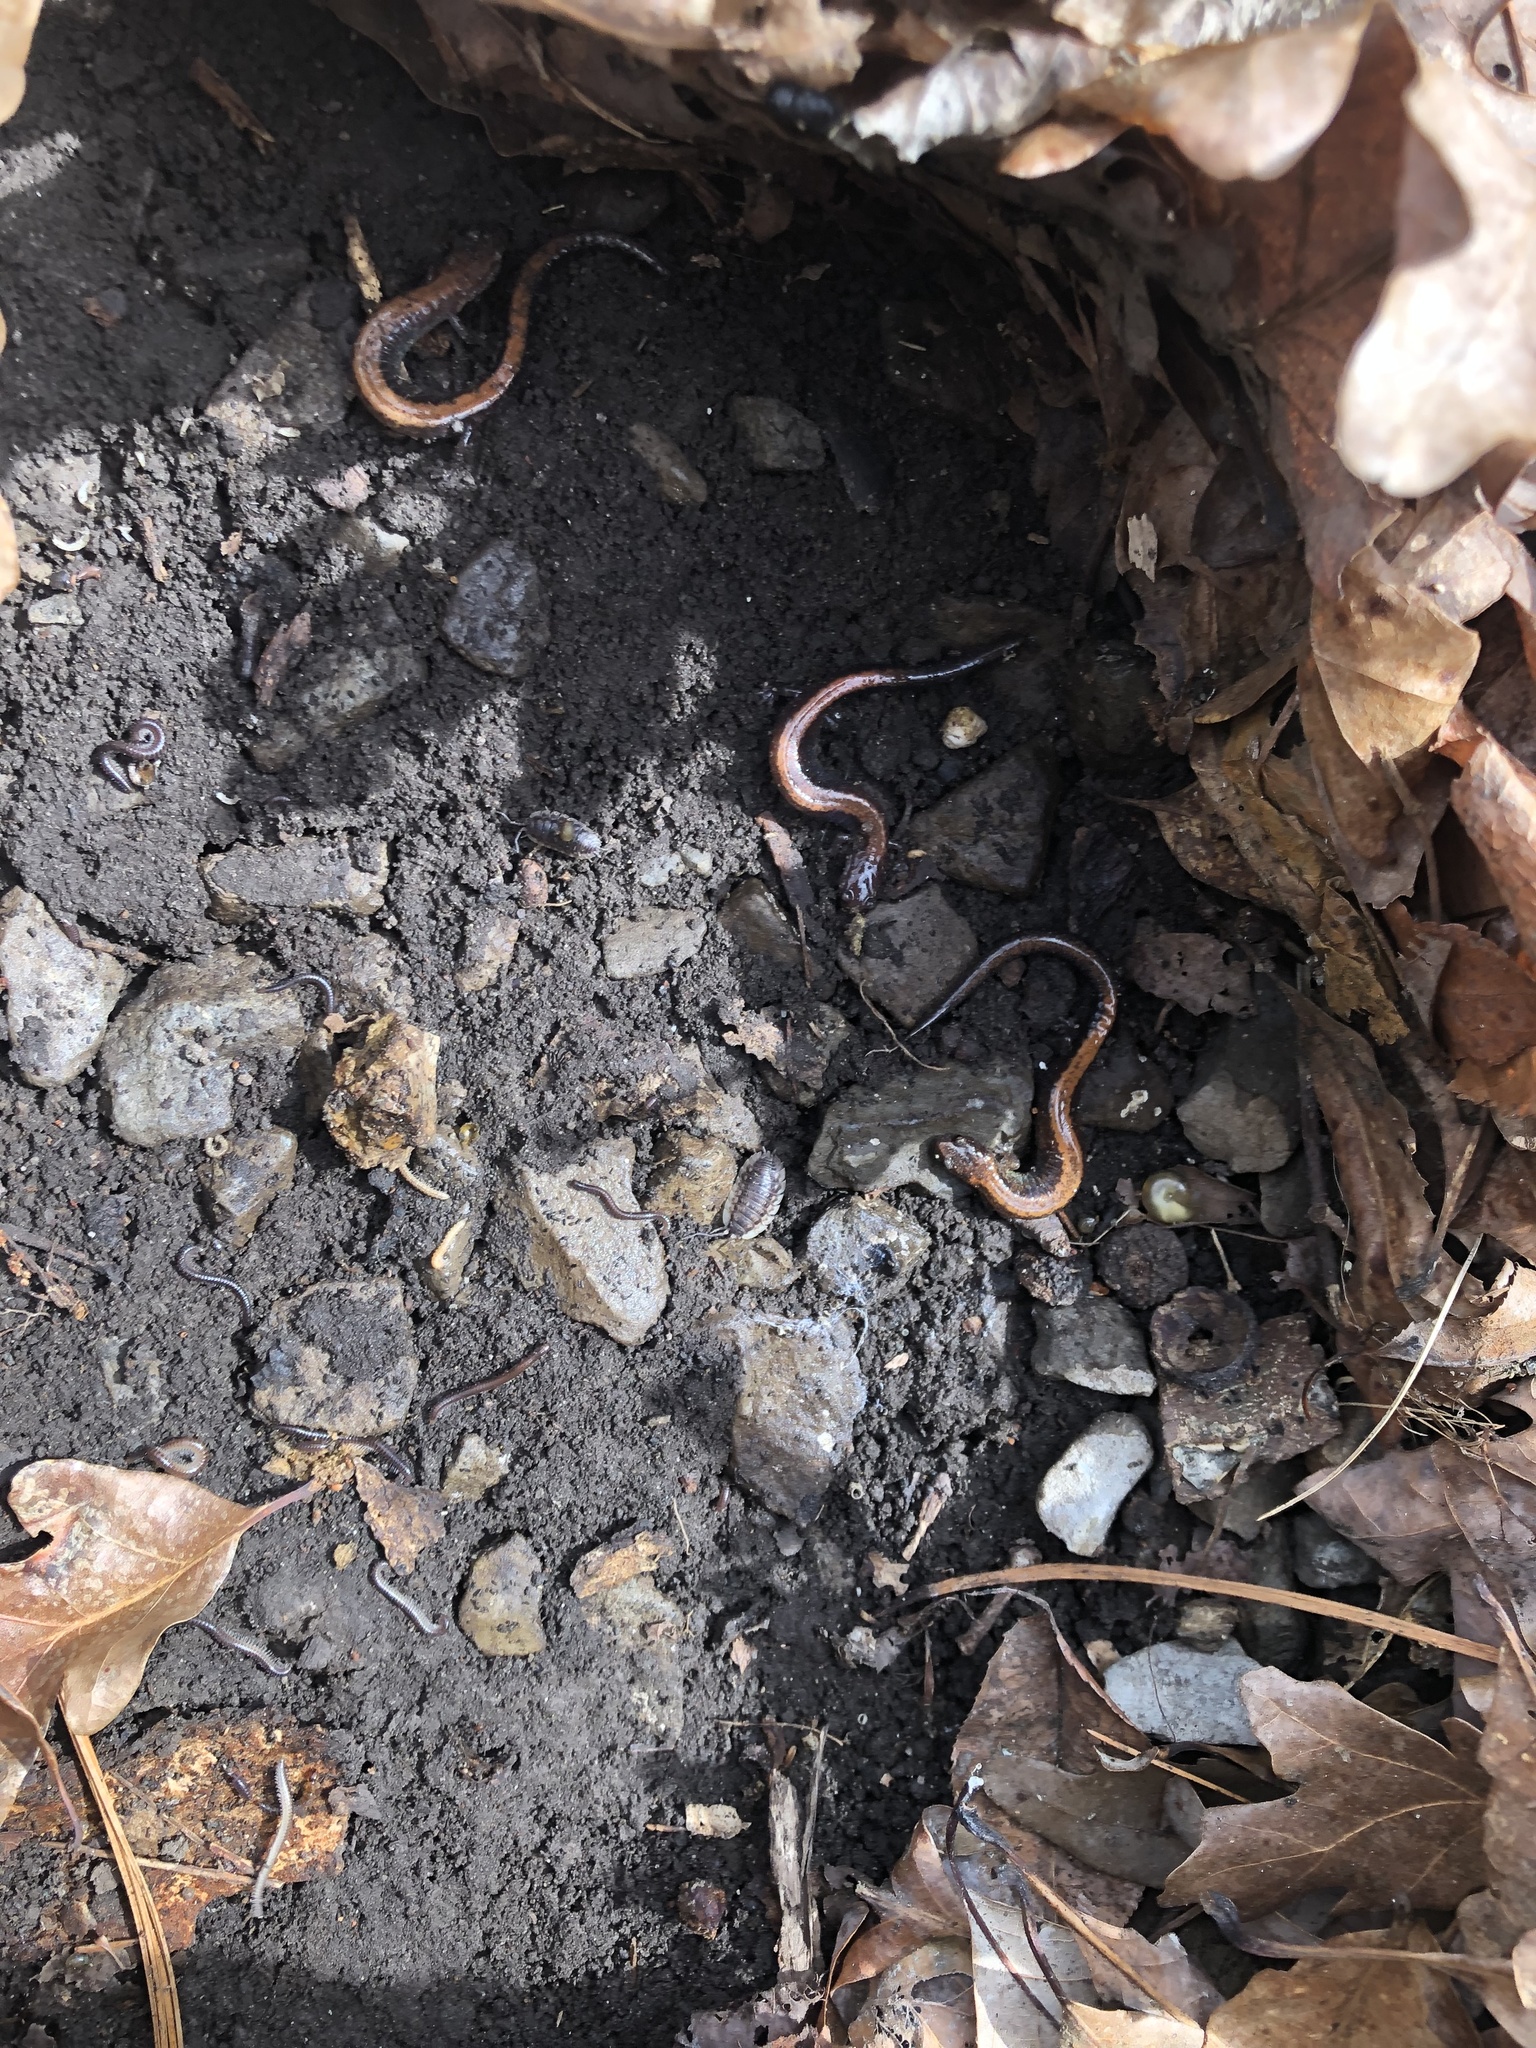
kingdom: Animalia
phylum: Chordata
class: Amphibia
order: Caudata
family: Plethodontidae
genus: Plethodon
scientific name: Plethodon cinereus
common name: Redback salamander
